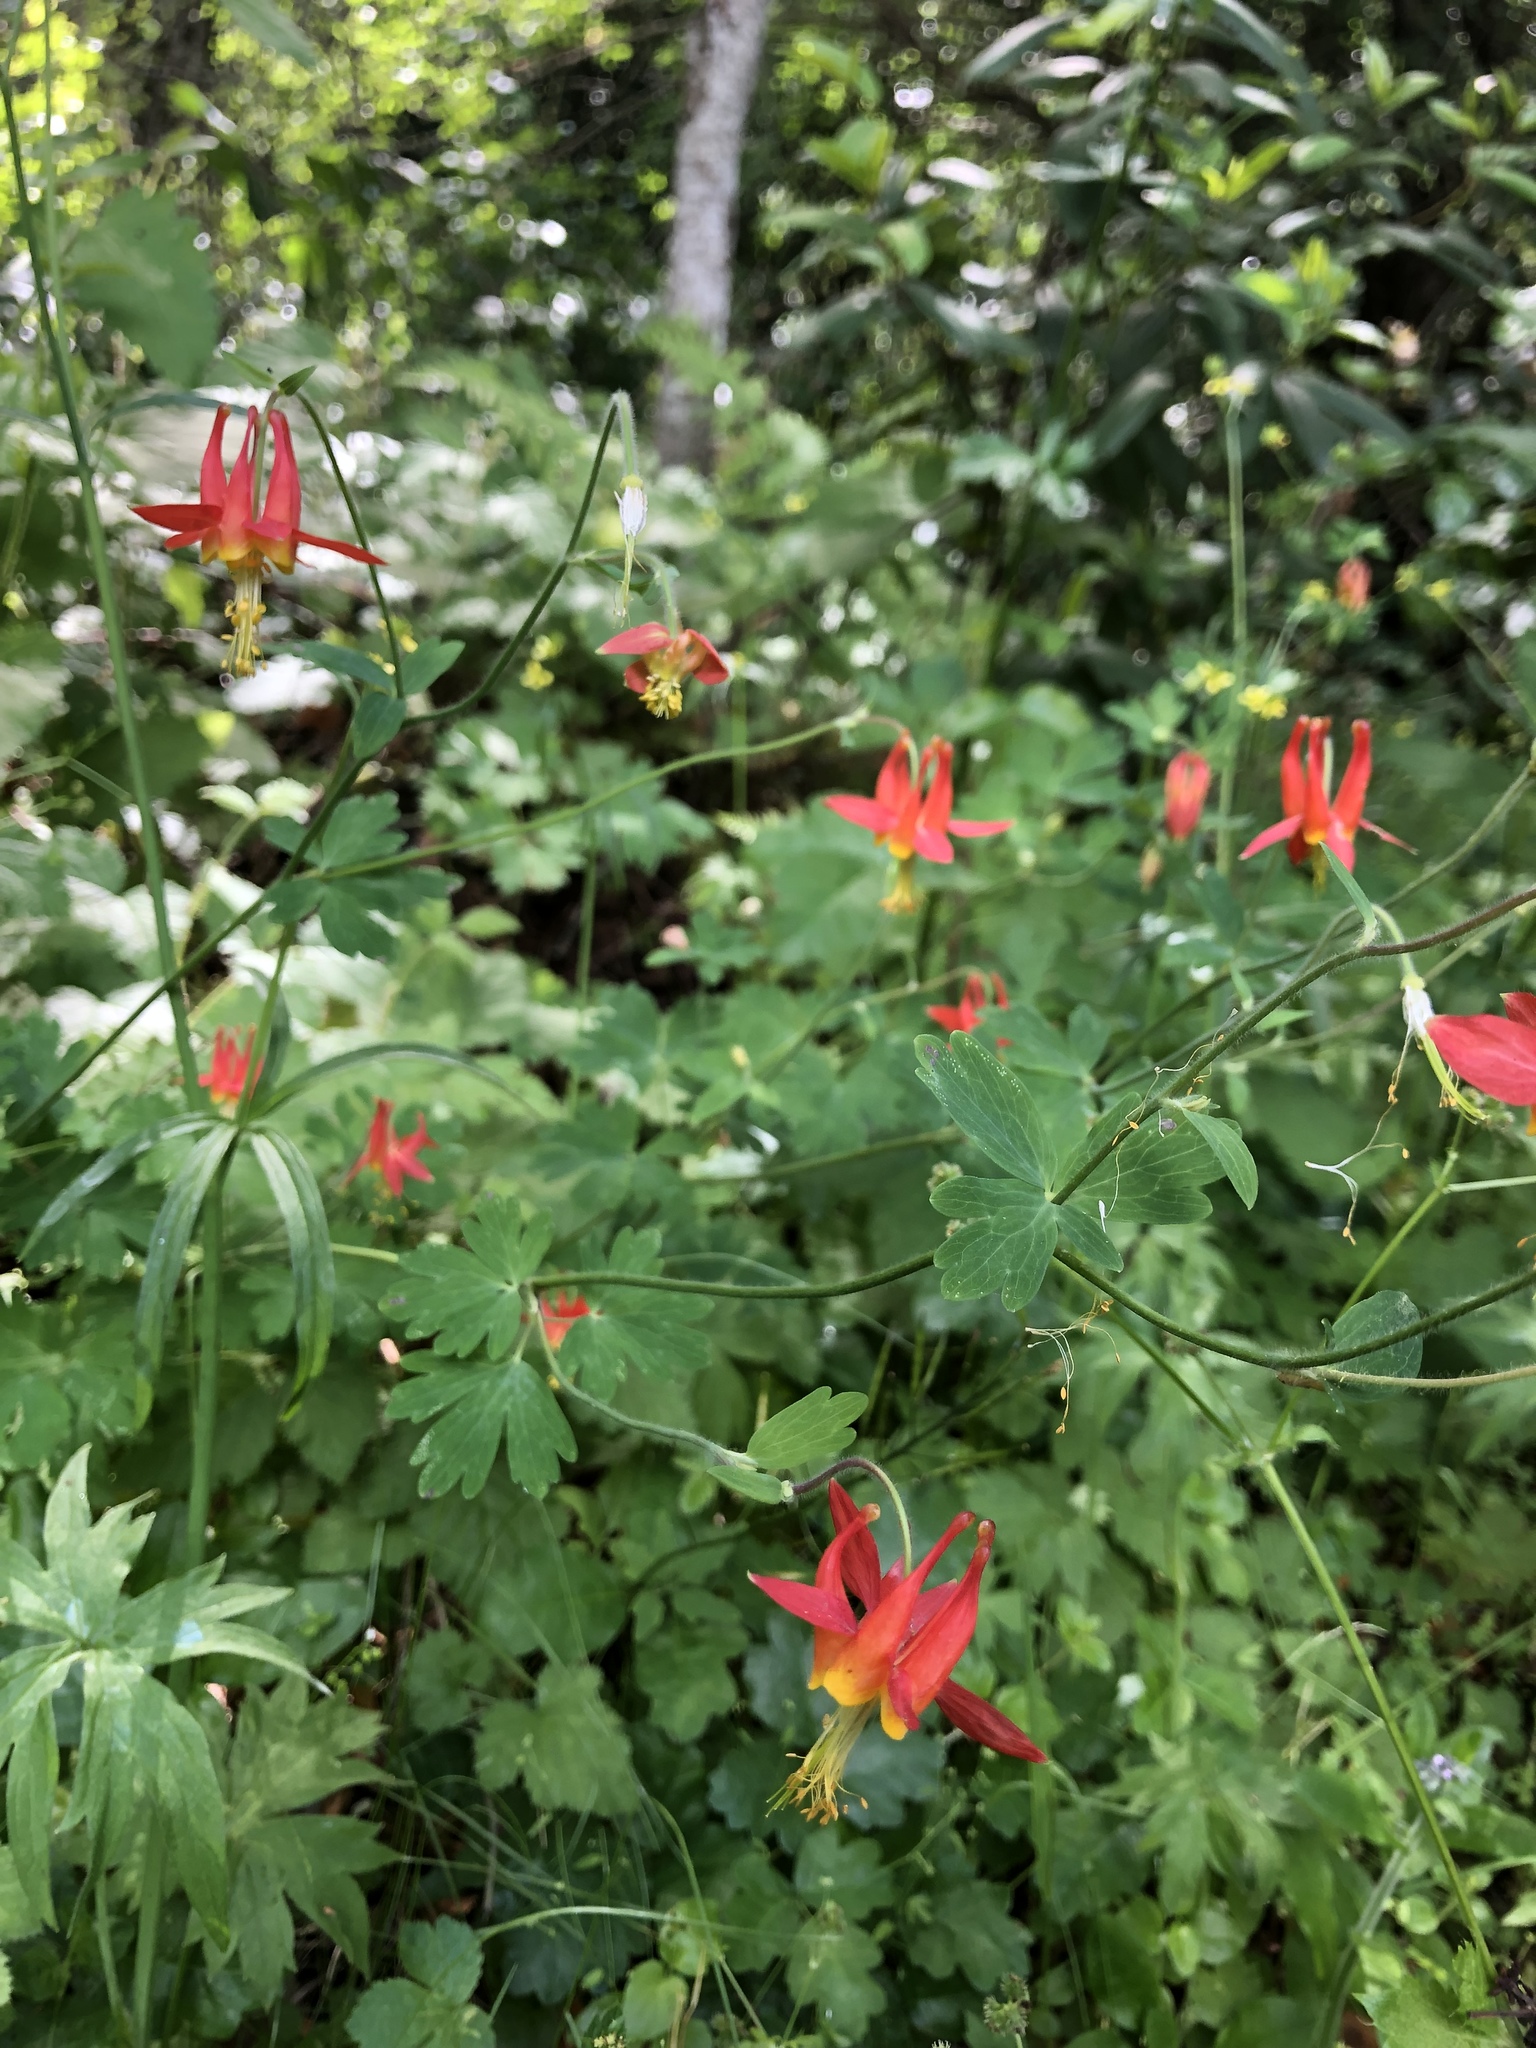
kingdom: Plantae
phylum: Tracheophyta
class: Magnoliopsida
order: Ranunculales
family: Ranunculaceae
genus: Aquilegia
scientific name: Aquilegia formosa
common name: Sitka columbine
